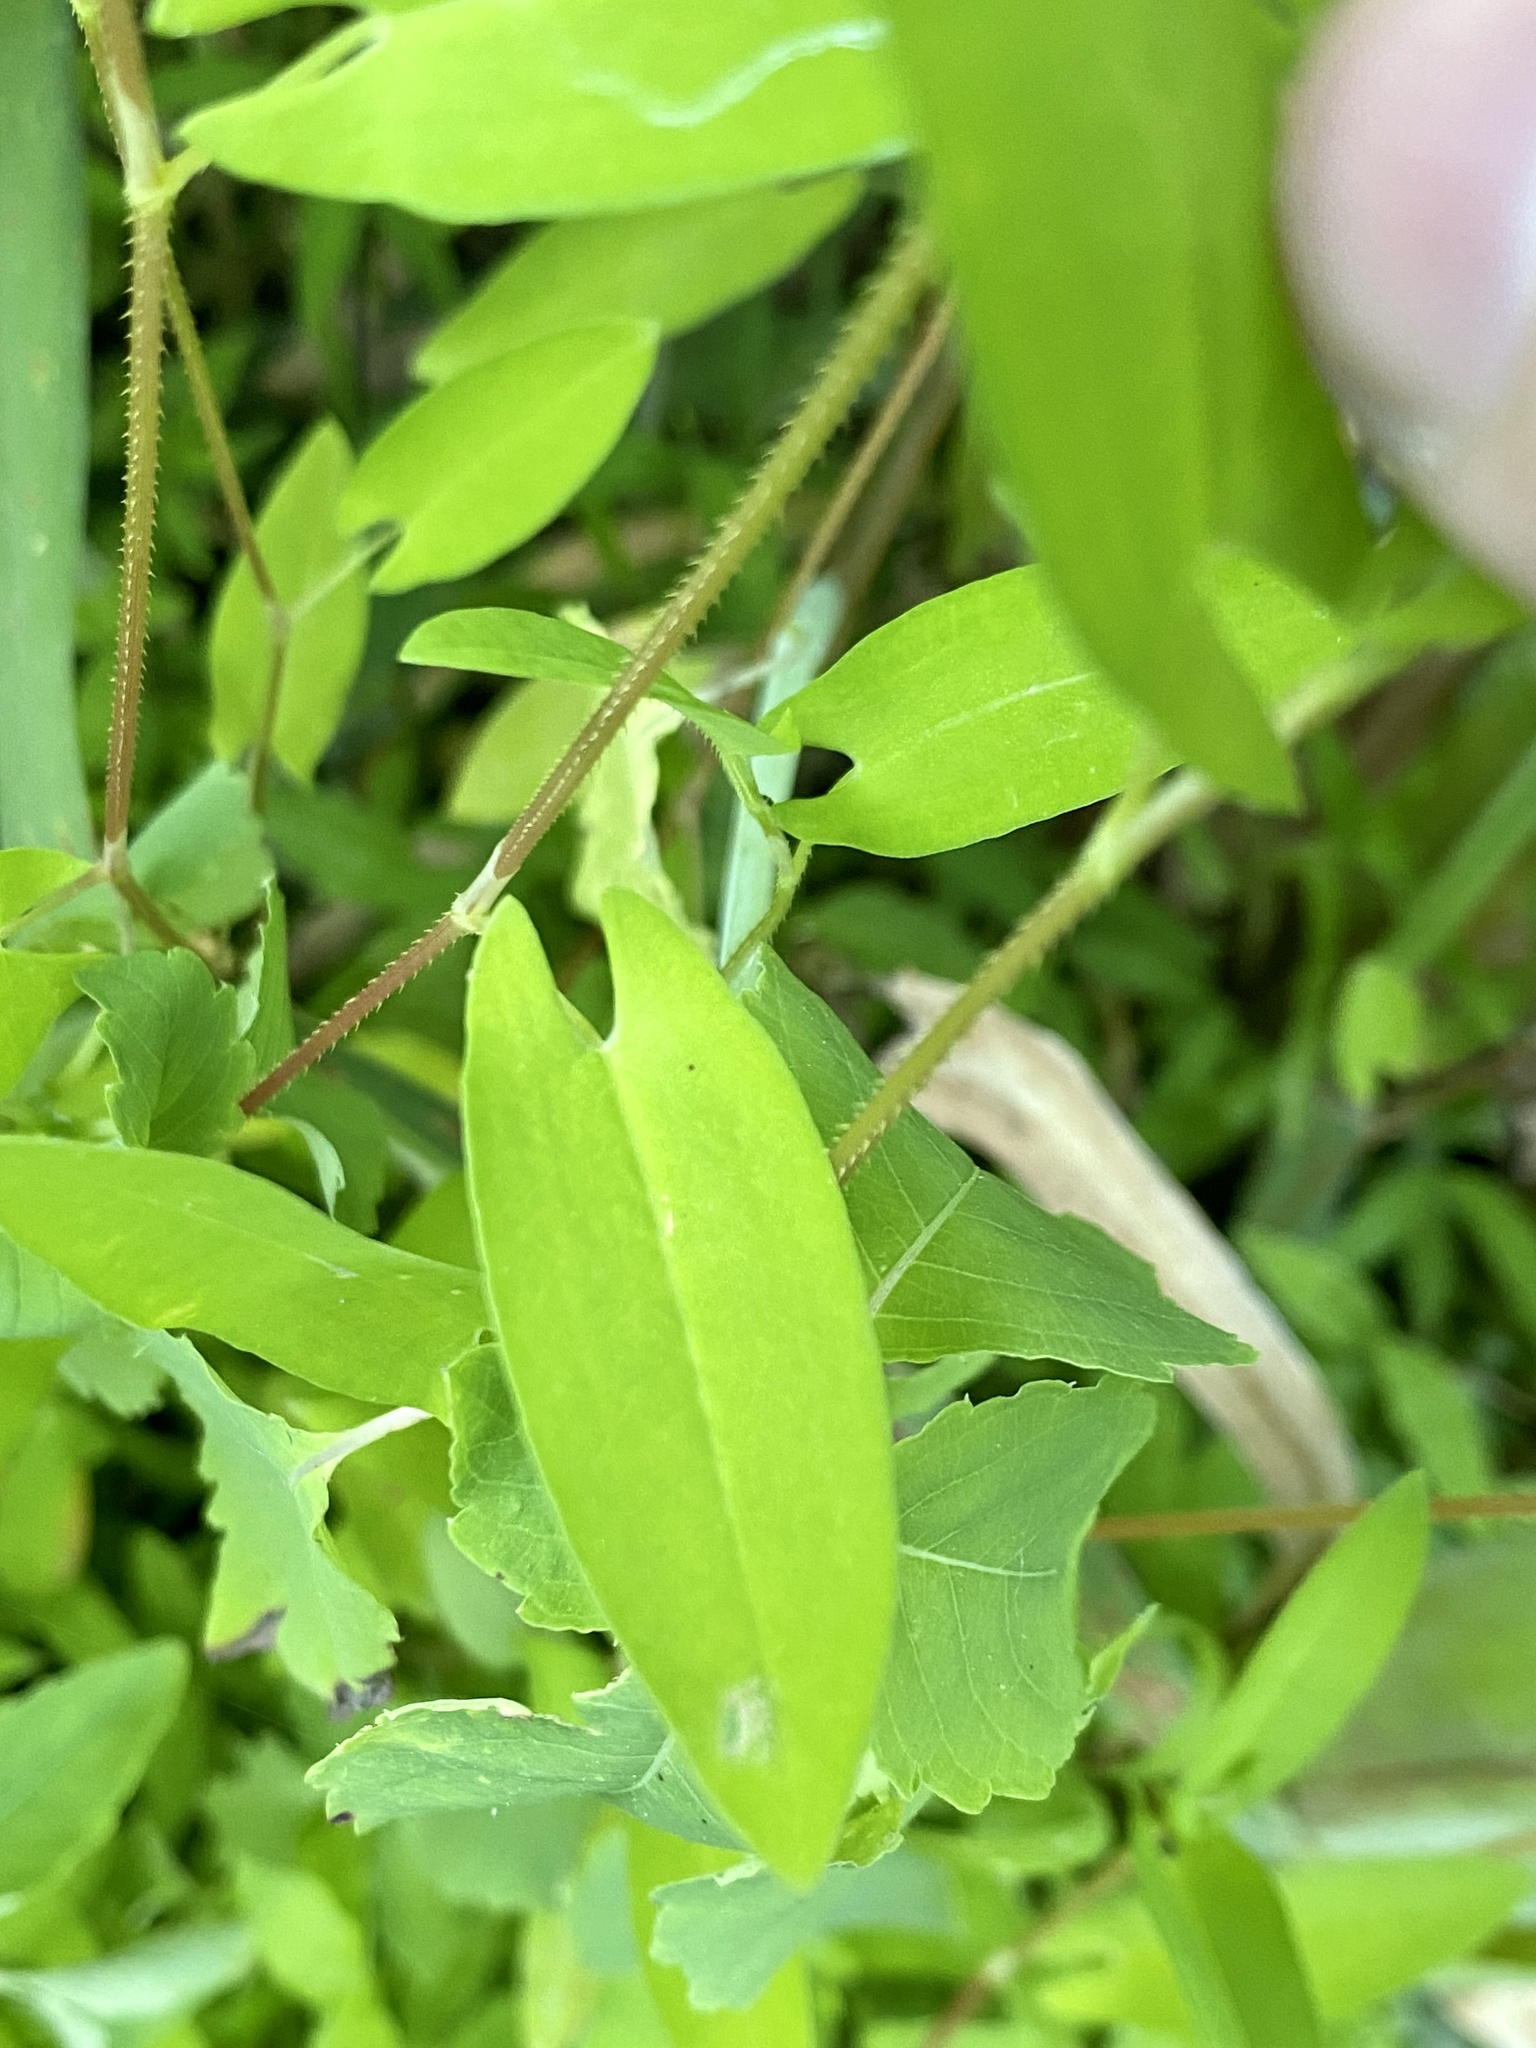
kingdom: Plantae
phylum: Tracheophyta
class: Magnoliopsida
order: Caryophyllales
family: Polygonaceae
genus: Persicaria
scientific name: Persicaria sagittata
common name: American tearthumb
